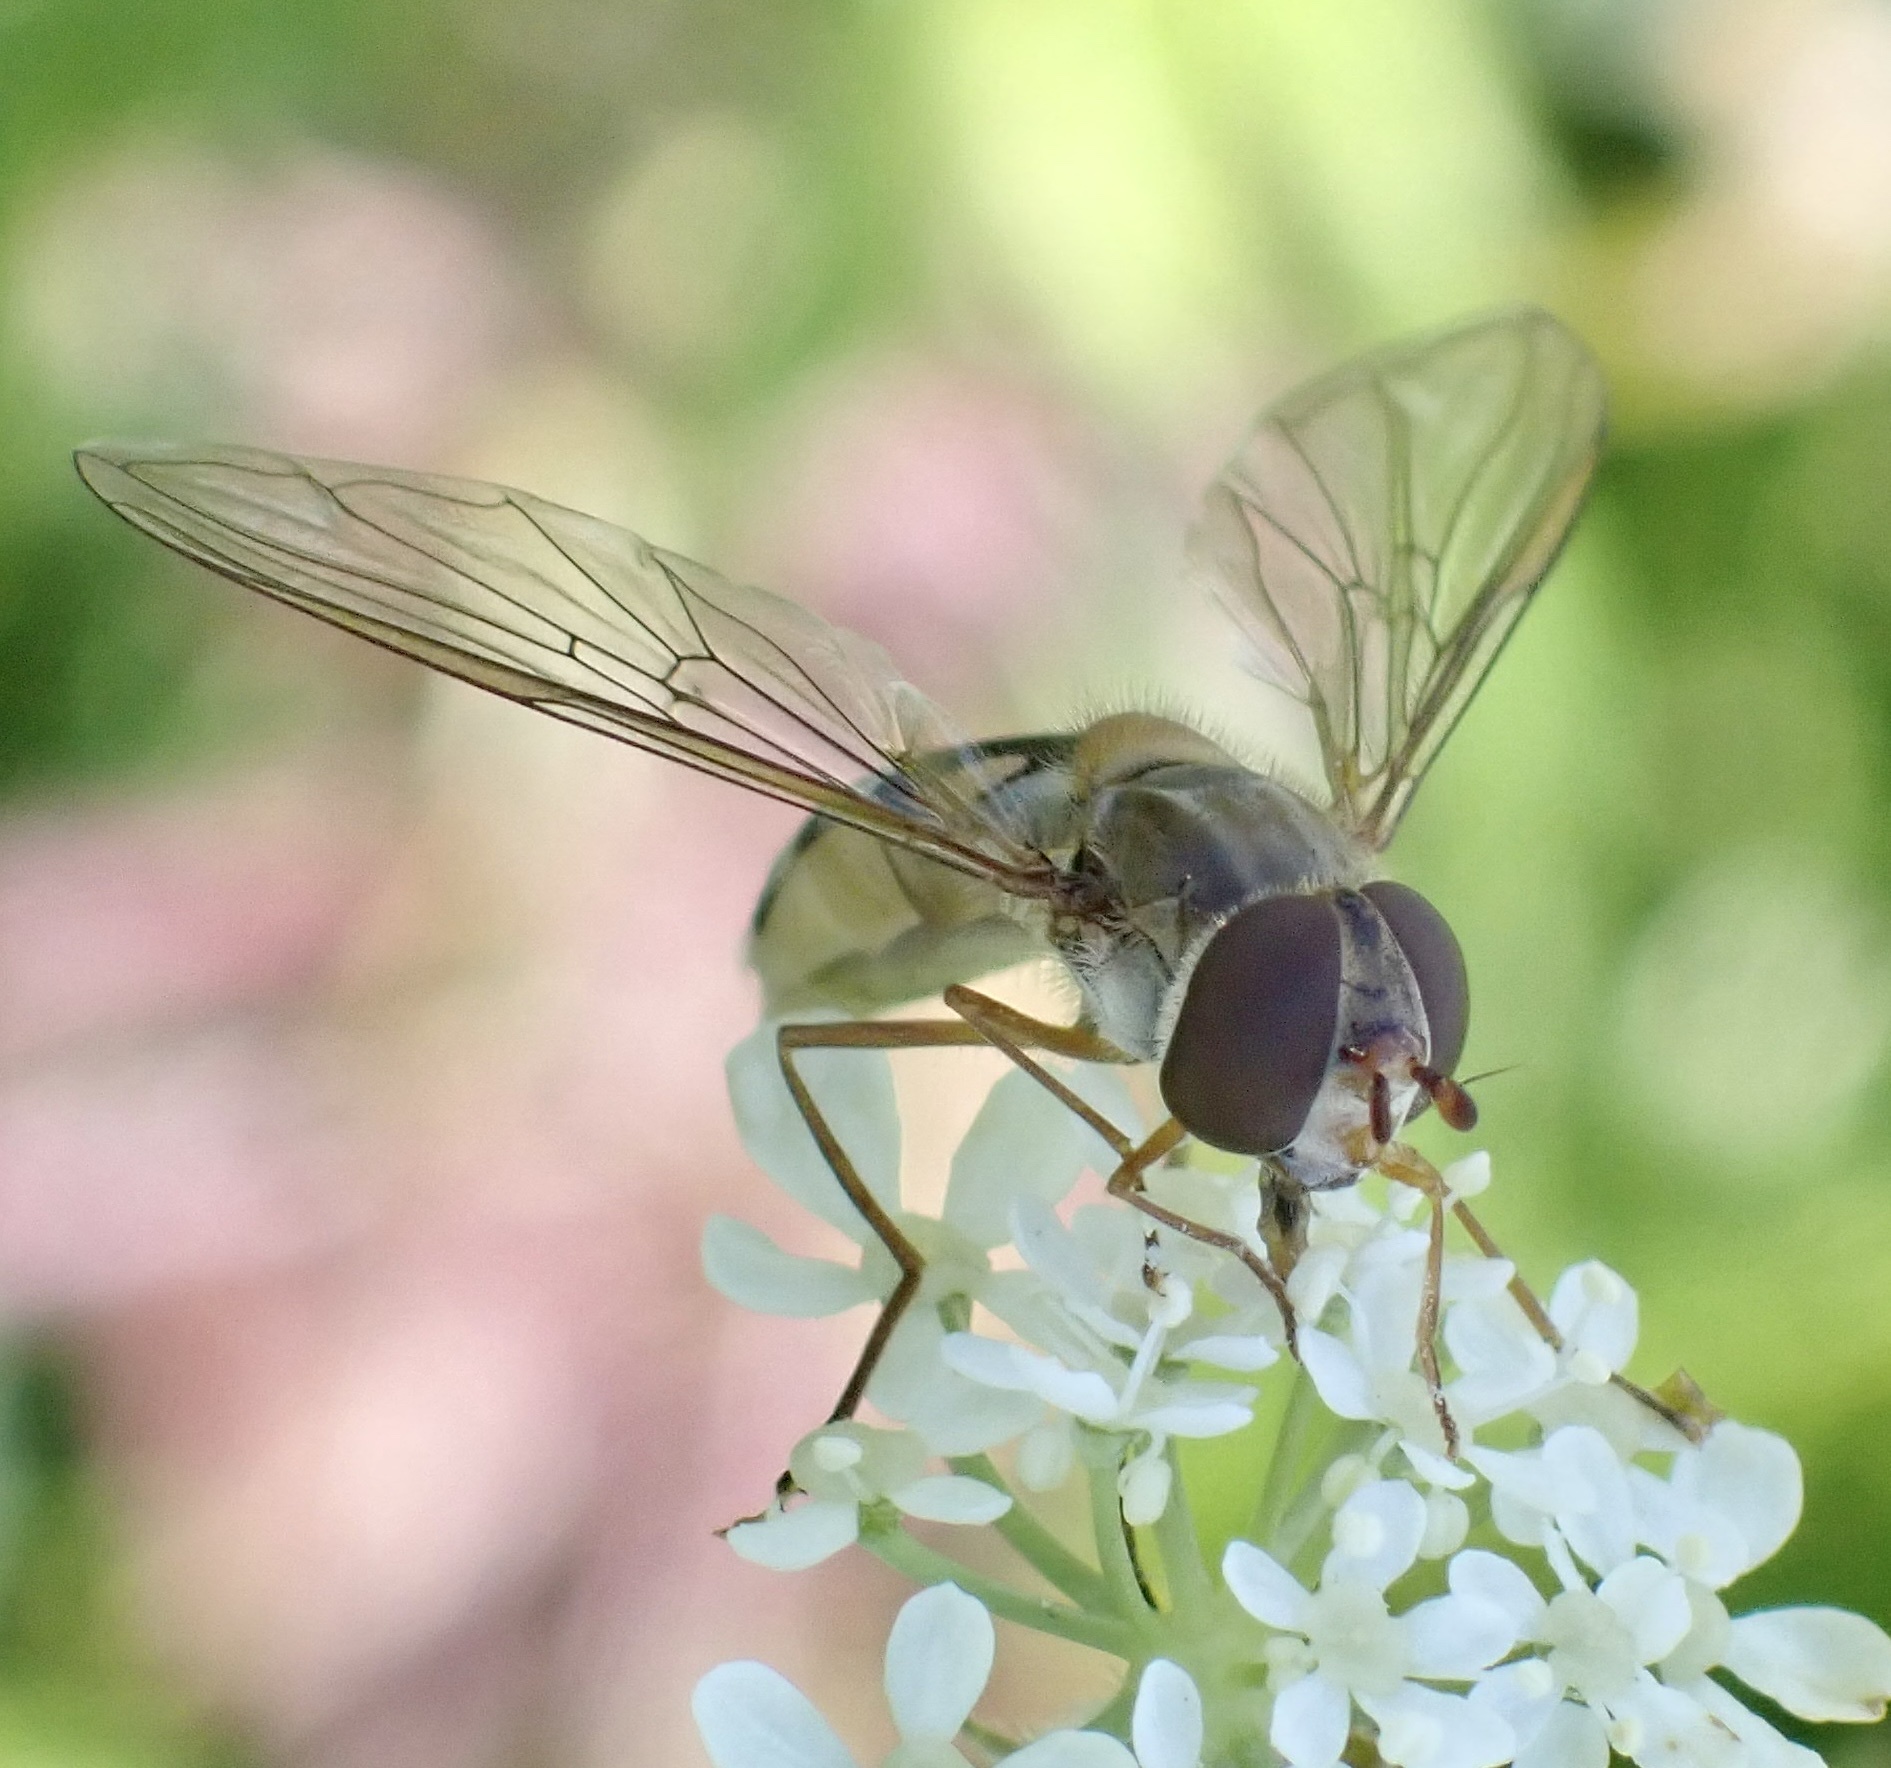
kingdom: Animalia
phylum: Arthropoda
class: Insecta
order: Diptera
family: Syrphidae
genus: Episyrphus
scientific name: Episyrphus balteatus
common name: Marmalade hoverfly
